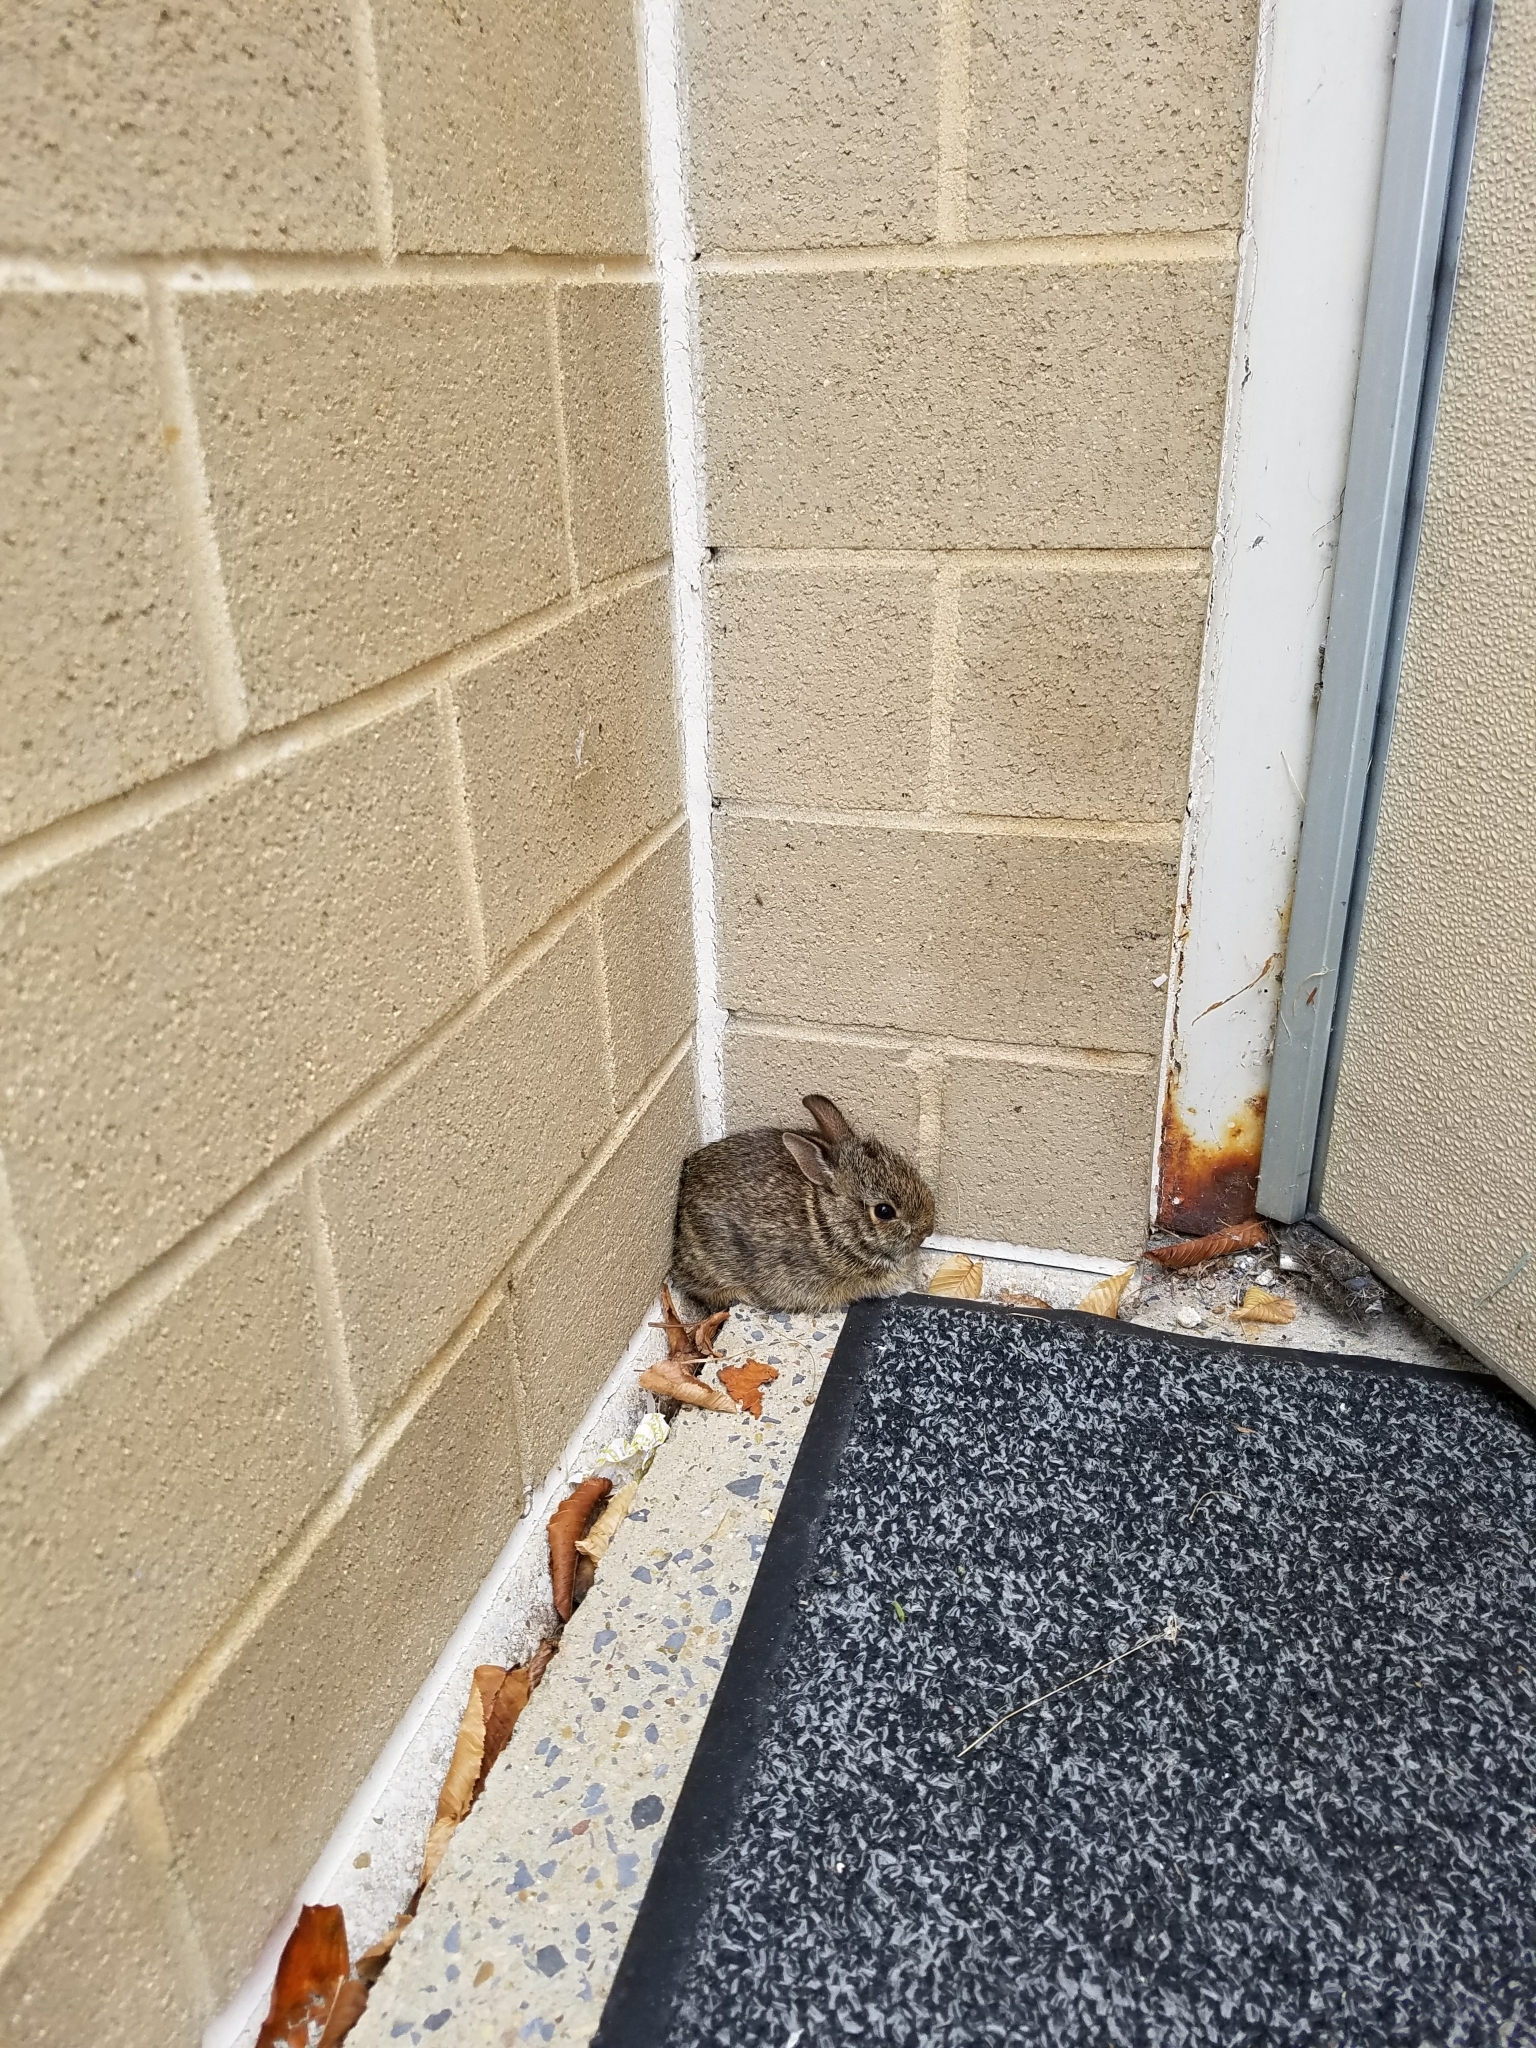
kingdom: Animalia
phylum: Chordata
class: Mammalia
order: Lagomorpha
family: Leporidae
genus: Sylvilagus
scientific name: Sylvilagus floridanus
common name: Eastern cottontail
